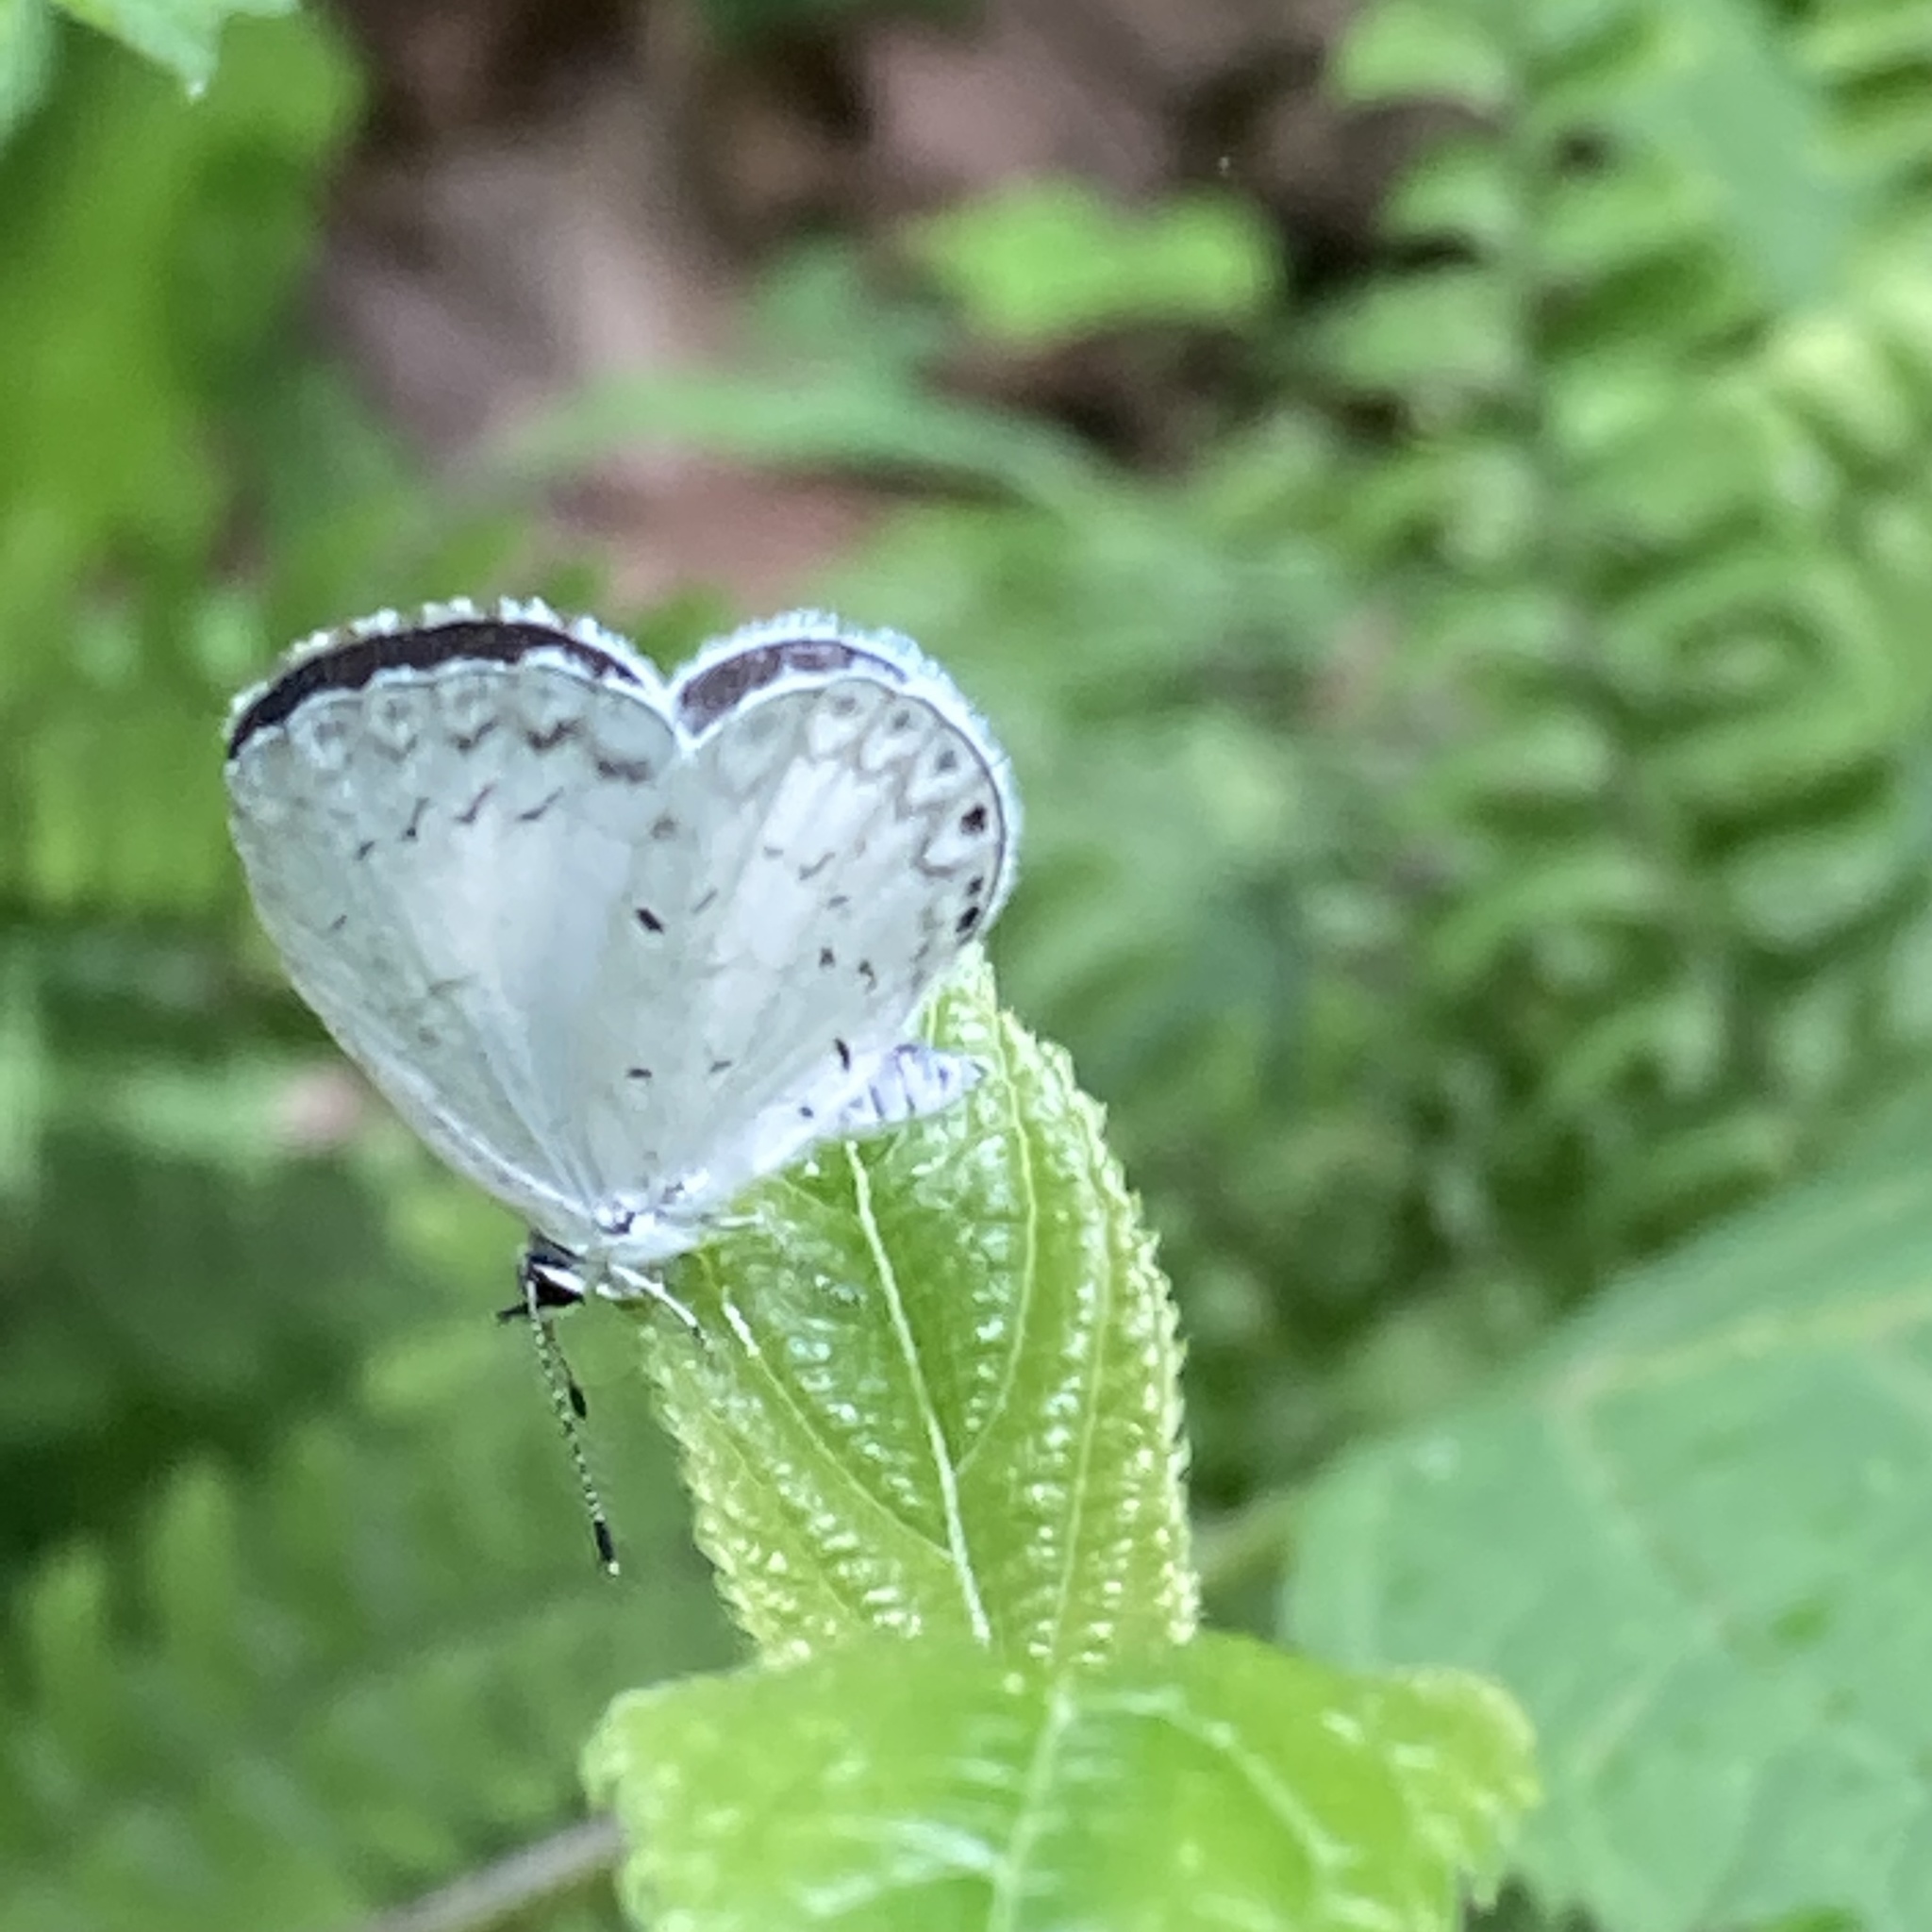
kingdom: Animalia
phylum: Arthropoda
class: Insecta
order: Lepidoptera
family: Lycaenidae
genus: Cyaniris
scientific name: Cyaniris neglecta
